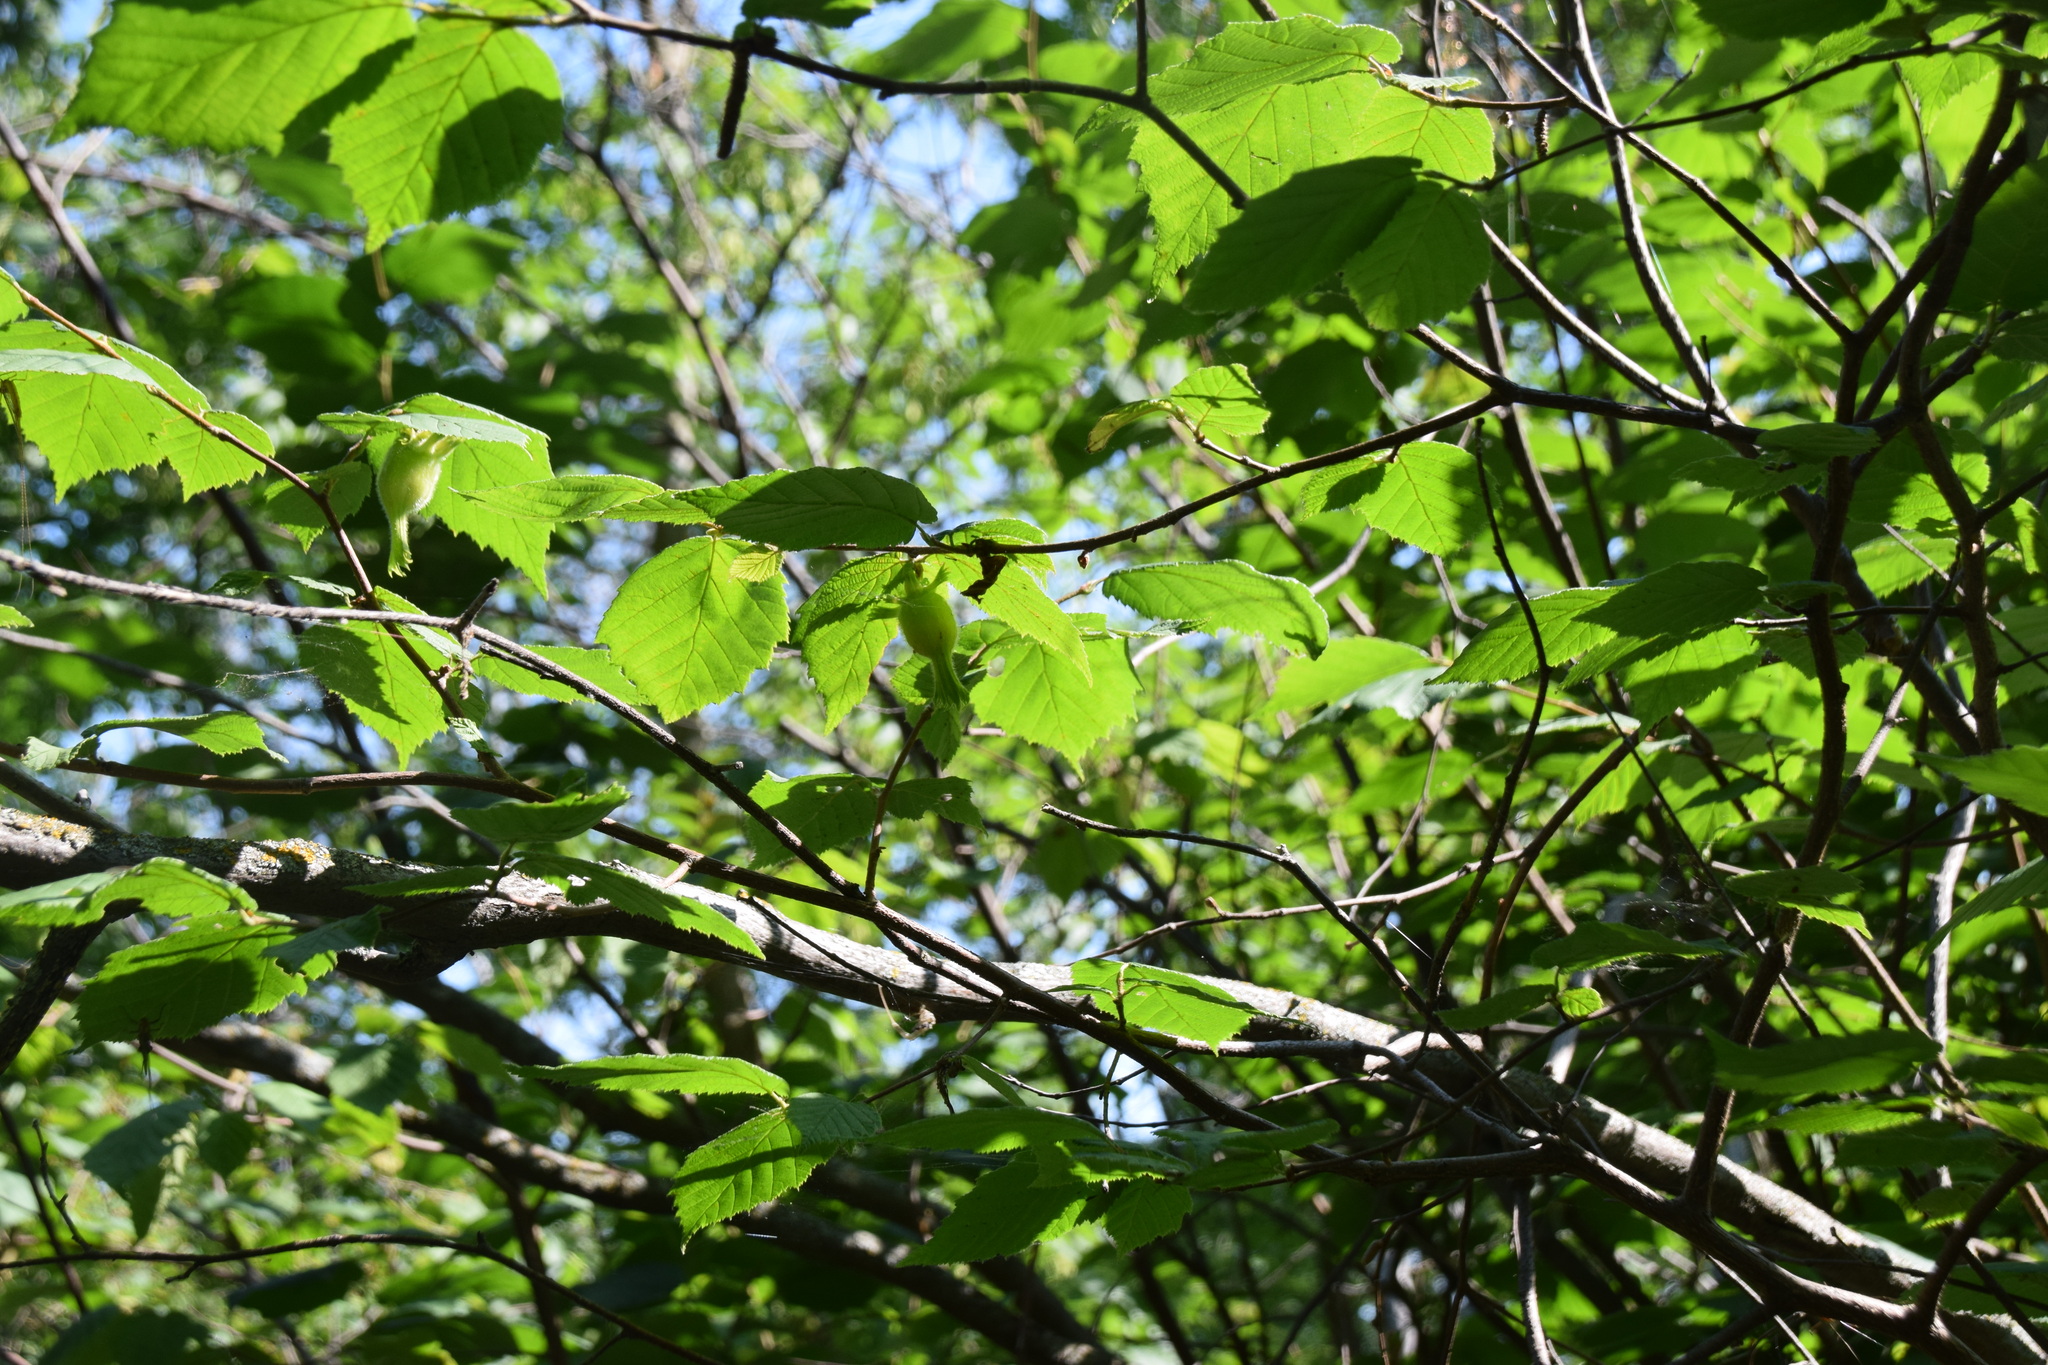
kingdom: Plantae
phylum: Tracheophyta
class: Magnoliopsida
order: Fagales
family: Betulaceae
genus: Corylus
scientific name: Corylus cornuta
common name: Beaked hazel
